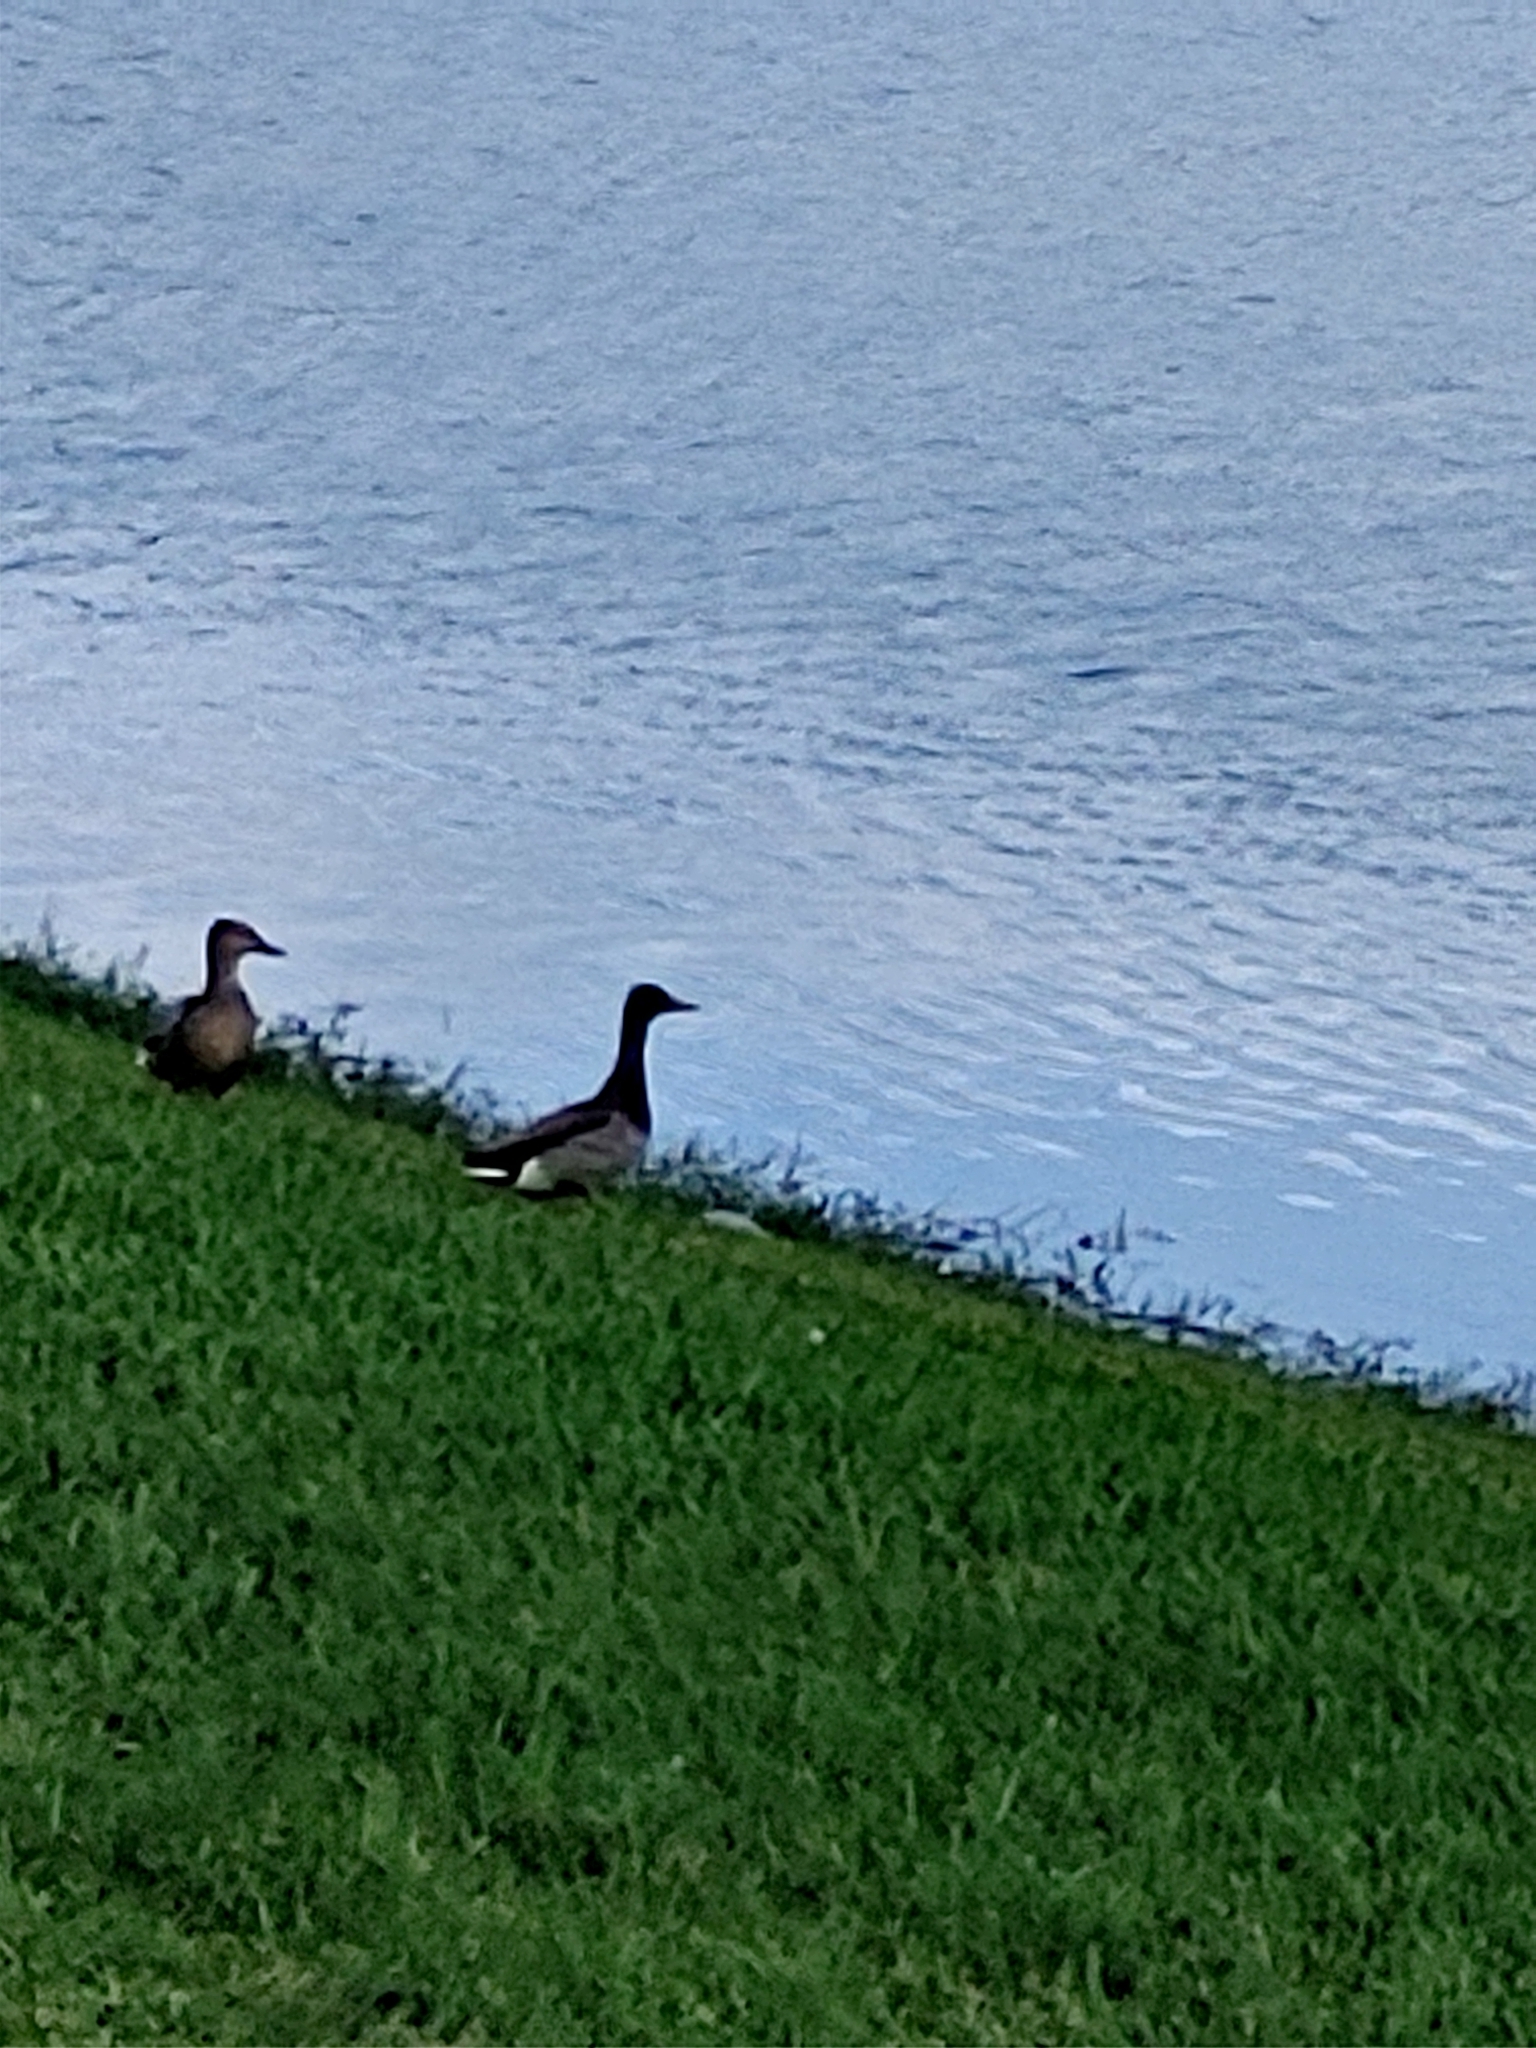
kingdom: Animalia
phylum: Chordata
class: Aves
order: Anseriformes
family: Anatidae
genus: Anas
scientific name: Anas platyrhynchos
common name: Mallard
